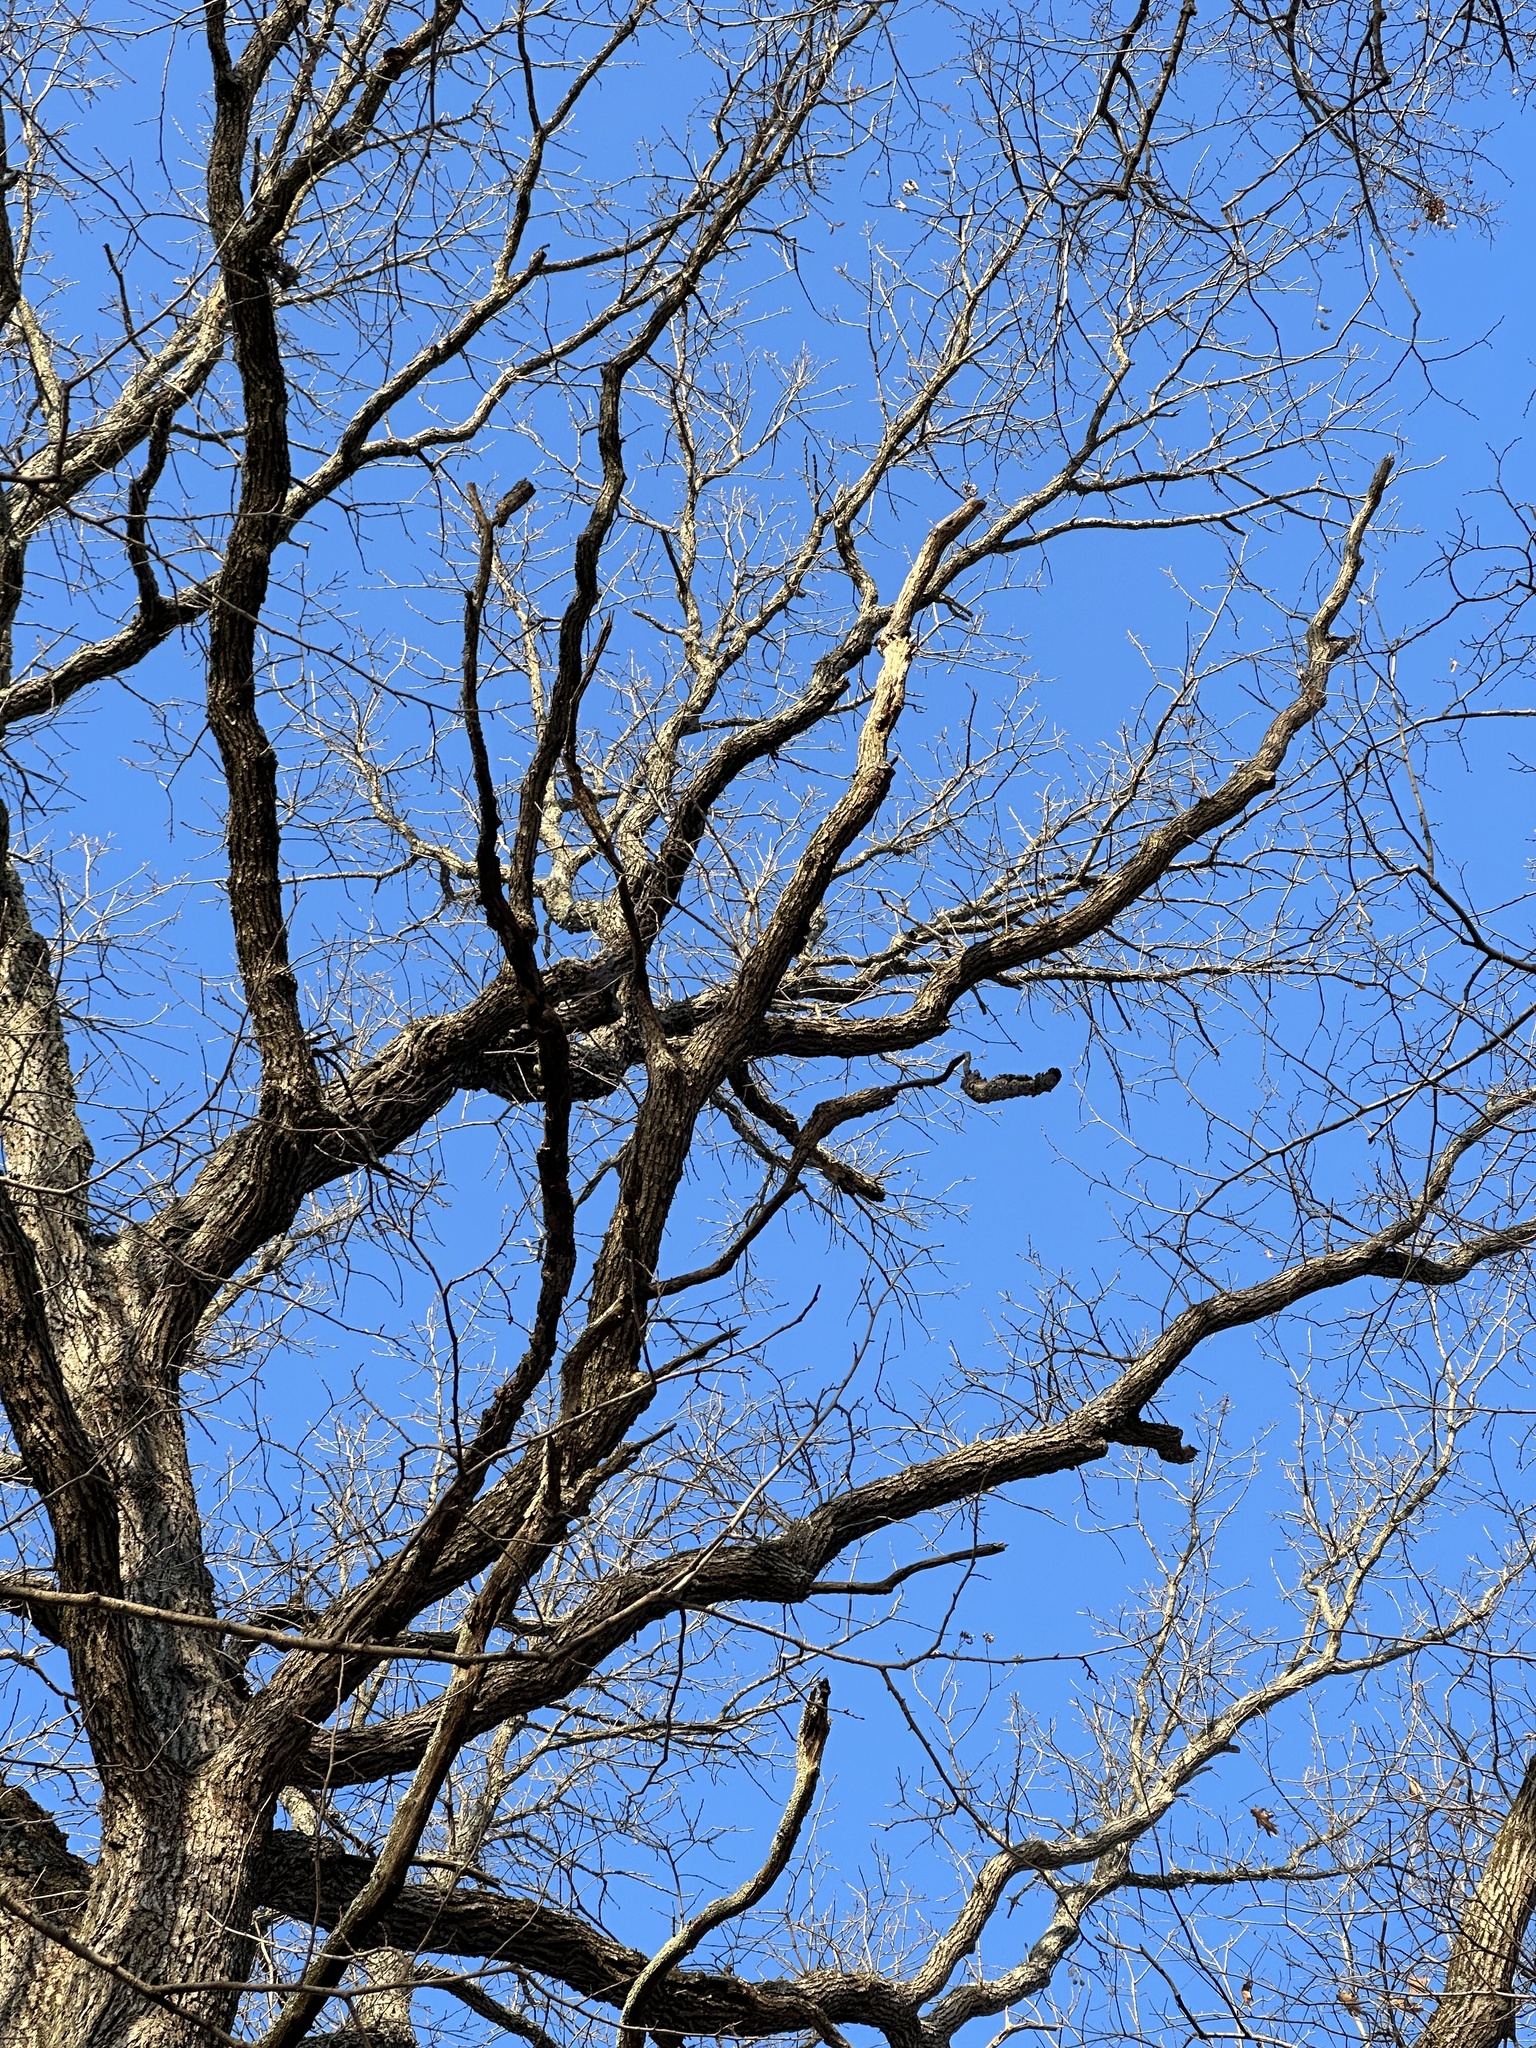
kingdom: Plantae
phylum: Tracheophyta
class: Magnoliopsida
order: Fagales
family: Fagaceae
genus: Quercus
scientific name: Quercus macrocarpa
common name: Bur oak
